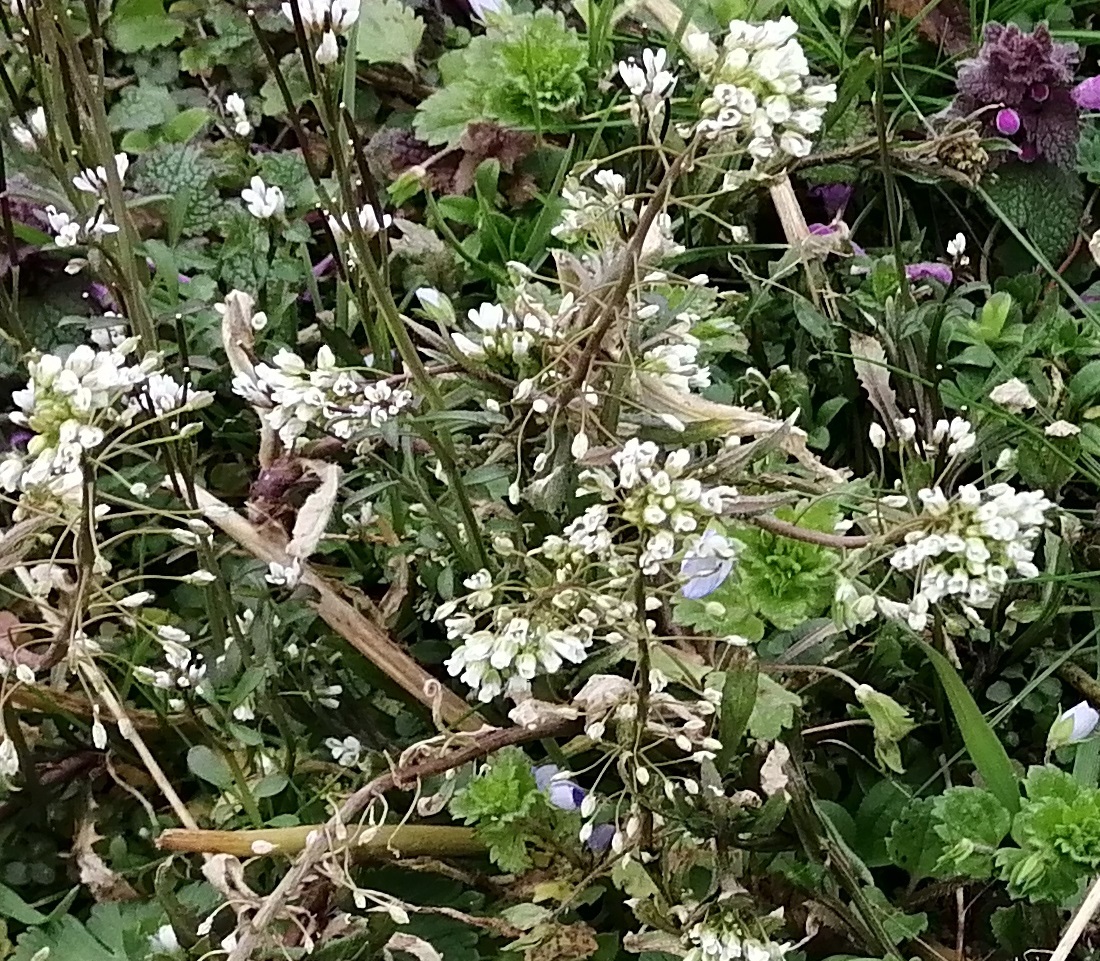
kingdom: Plantae
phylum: Tracheophyta
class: Magnoliopsida
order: Brassicales
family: Brassicaceae
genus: Capsella
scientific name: Capsella bursa-pastoris
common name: Shepherd's purse
